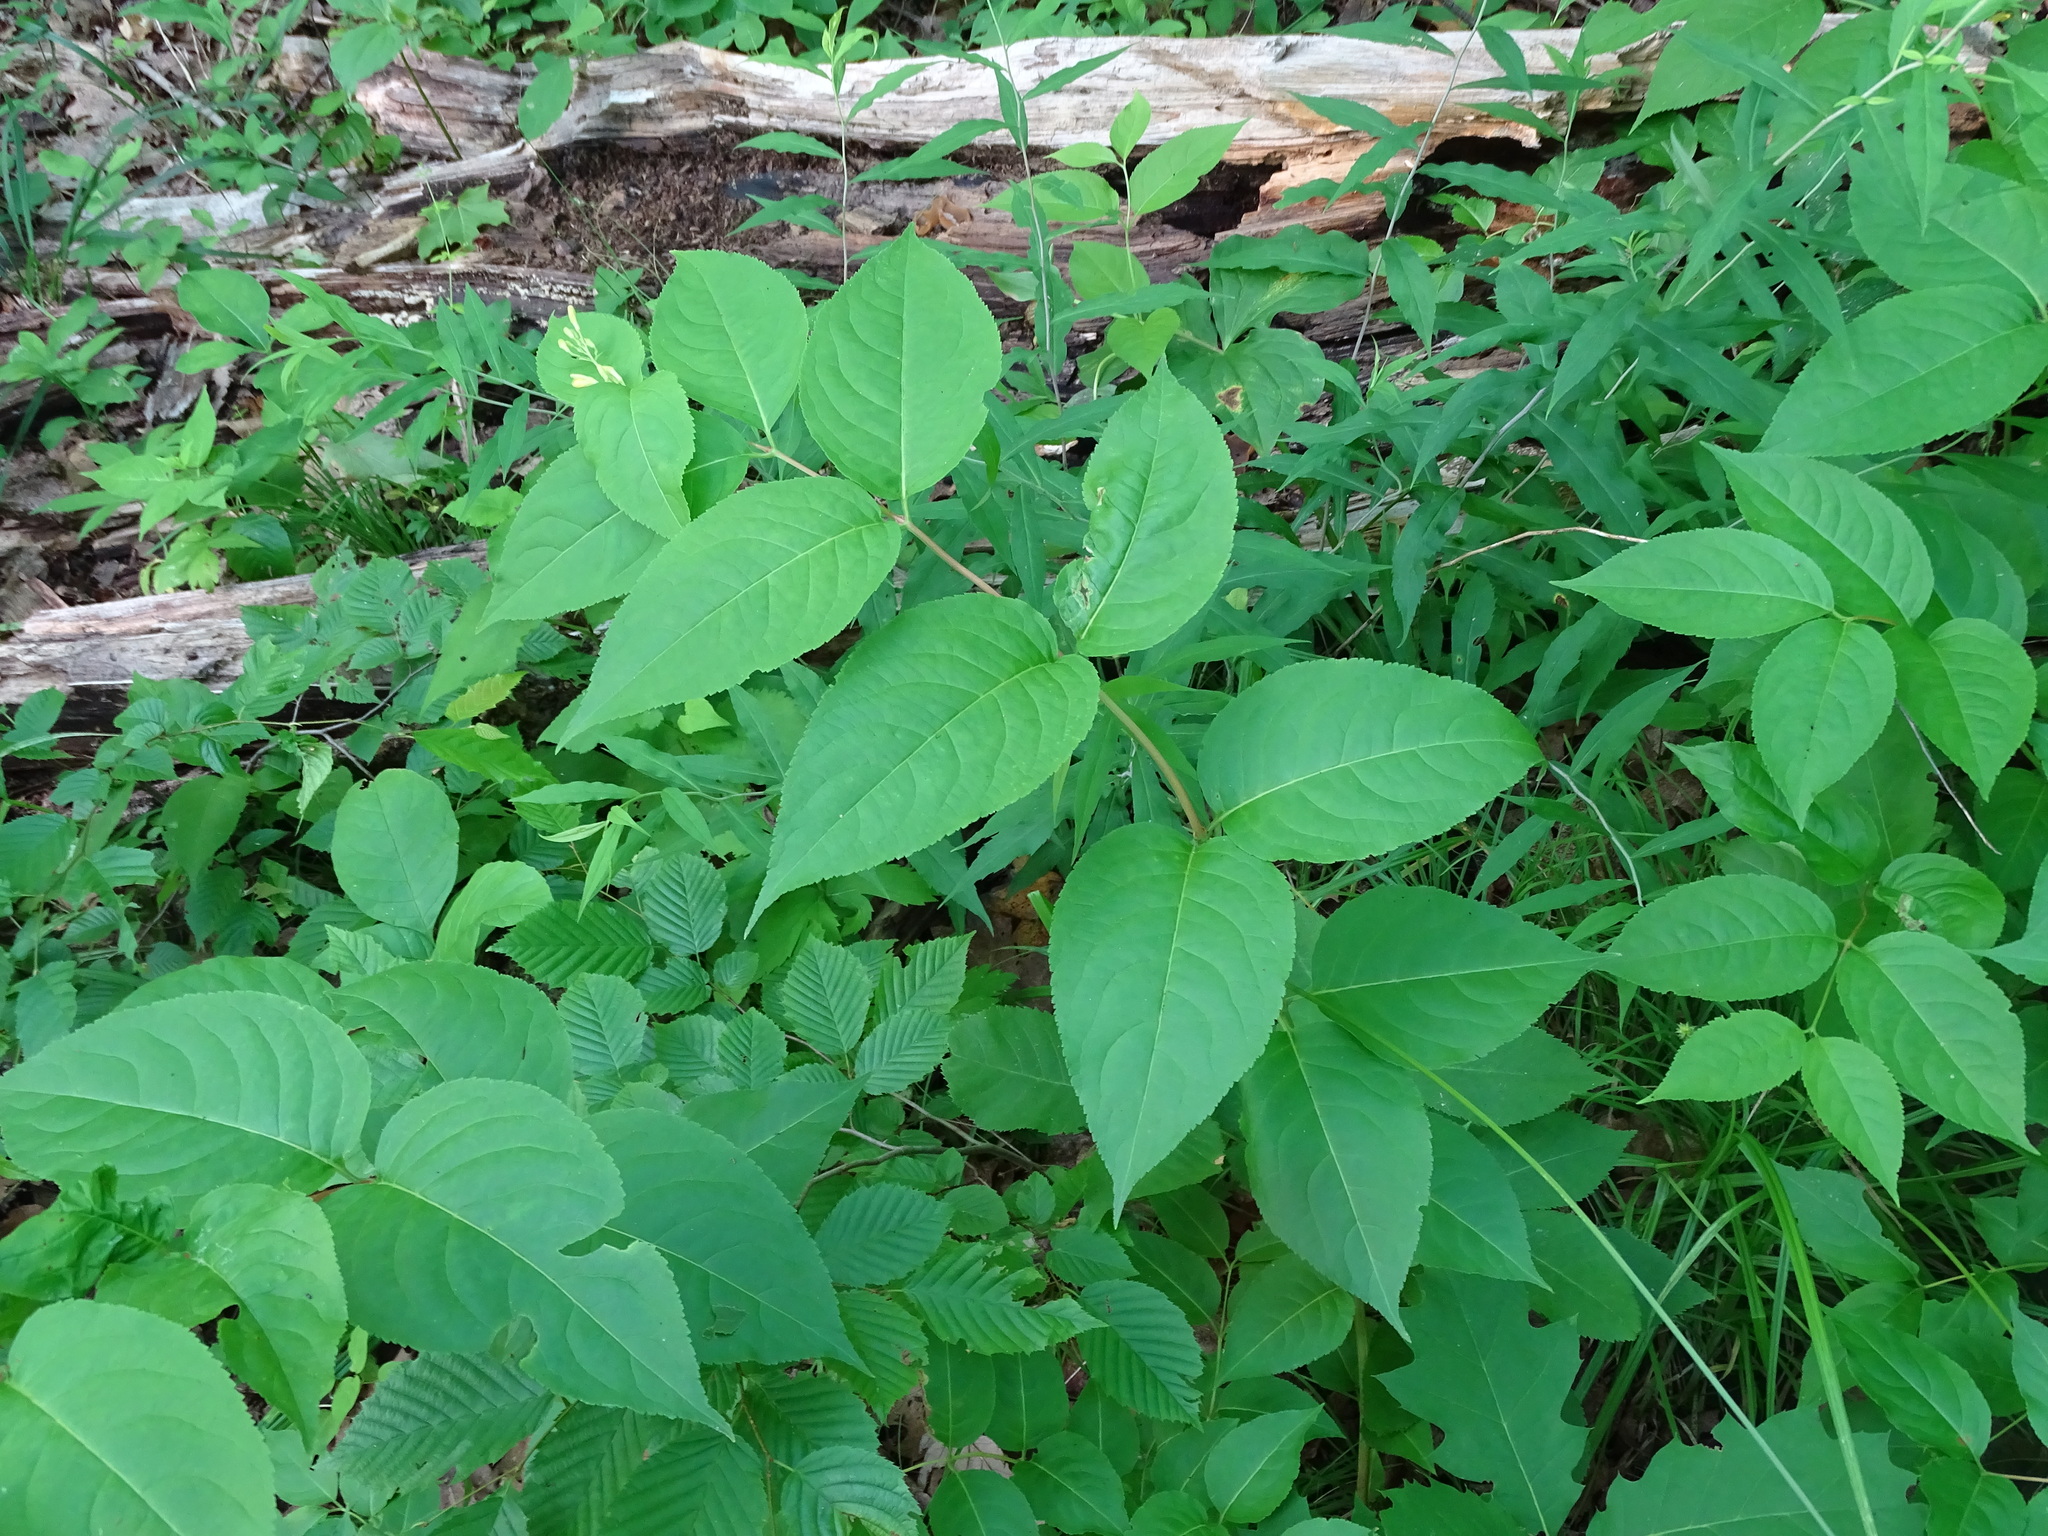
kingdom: Plantae
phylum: Tracheophyta
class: Magnoliopsida
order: Dipsacales
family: Caprifoliaceae
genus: Diervilla
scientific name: Diervilla lonicera
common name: Bush-honeysuckle
